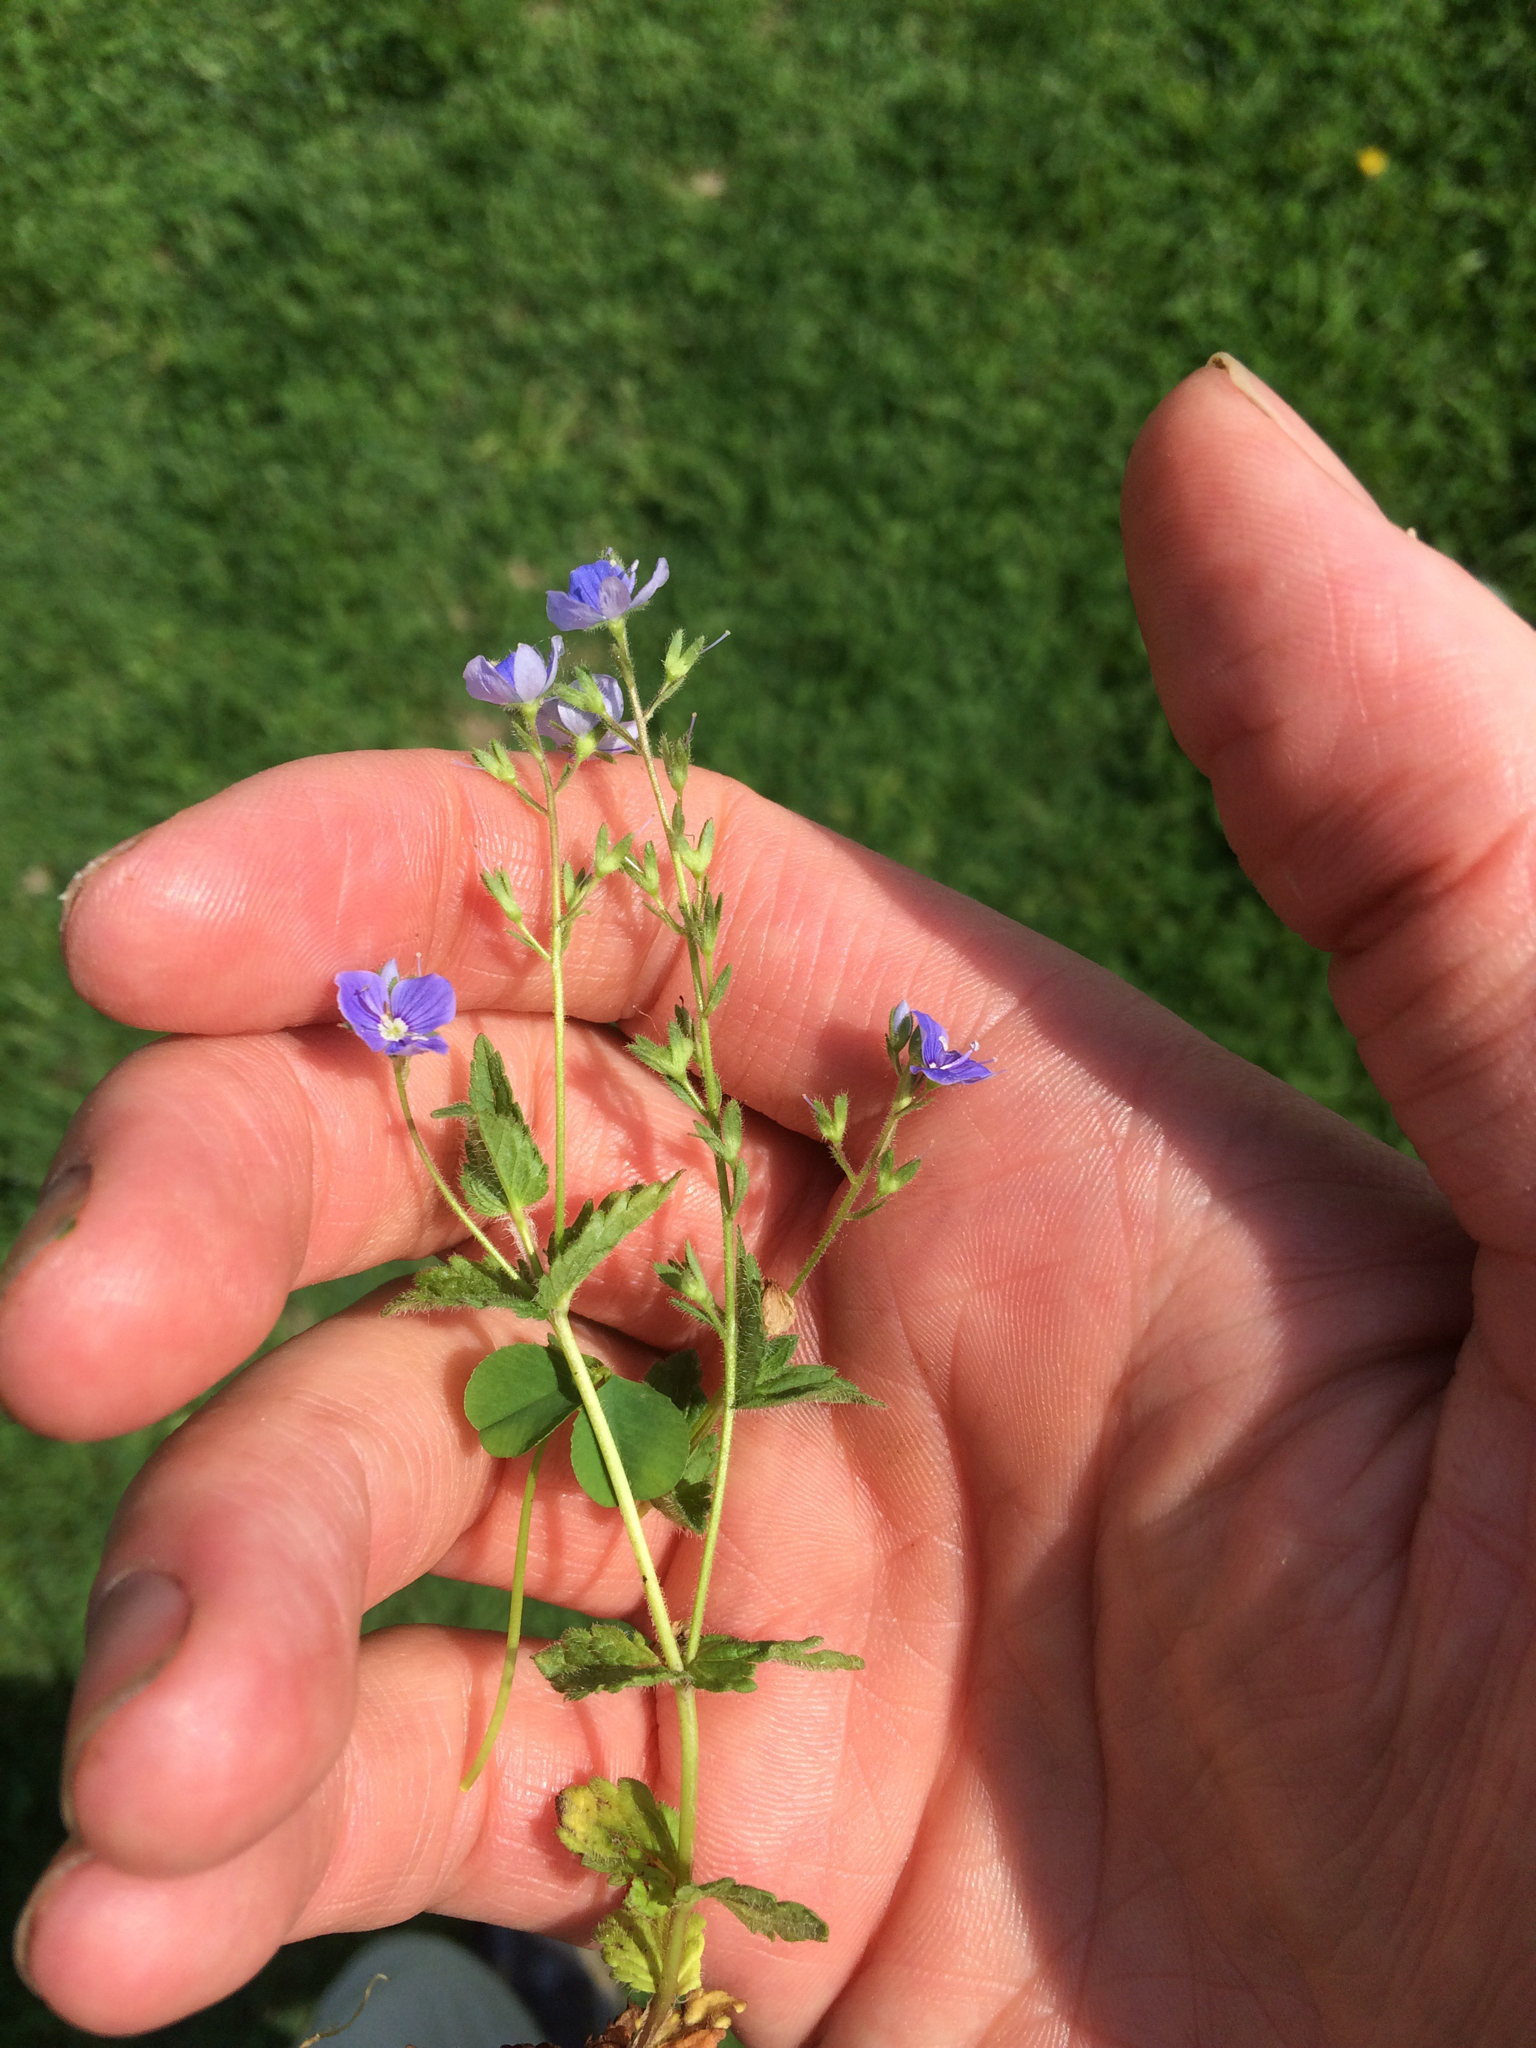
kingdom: Plantae
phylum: Tracheophyta
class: Magnoliopsida
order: Lamiales
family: Plantaginaceae
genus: Veronica
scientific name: Veronica chamaedrys
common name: Germander speedwell
